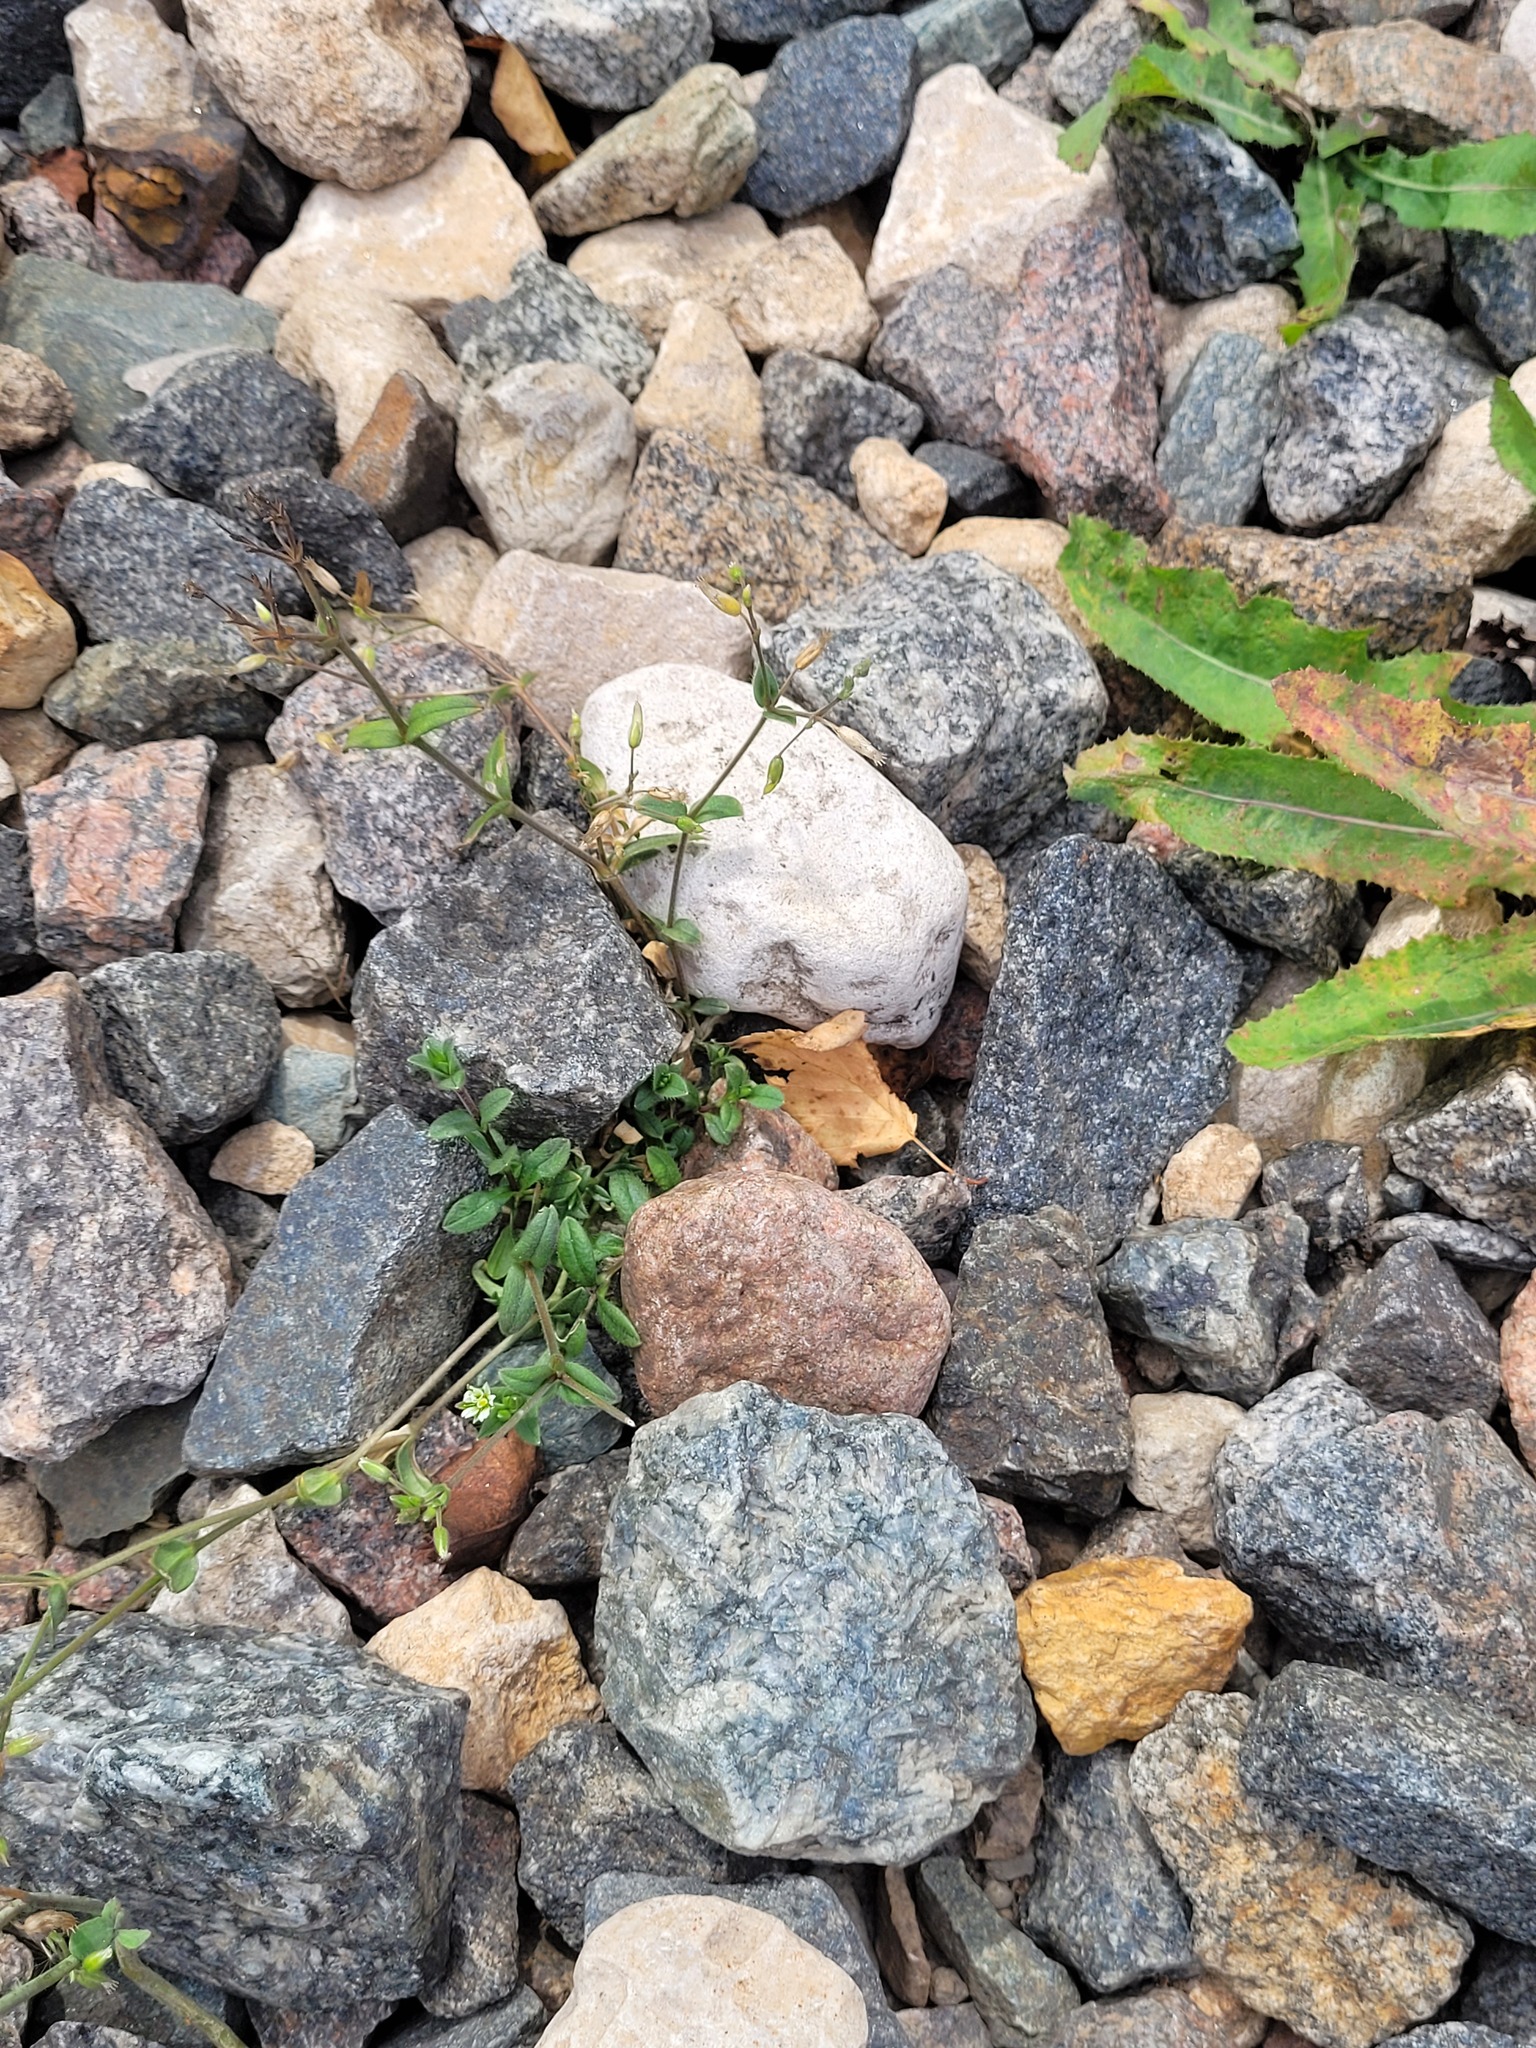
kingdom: Plantae
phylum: Tracheophyta
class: Magnoliopsida
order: Caryophyllales
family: Caryophyllaceae
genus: Cerastium
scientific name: Cerastium holosteoides
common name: Big chickweed
